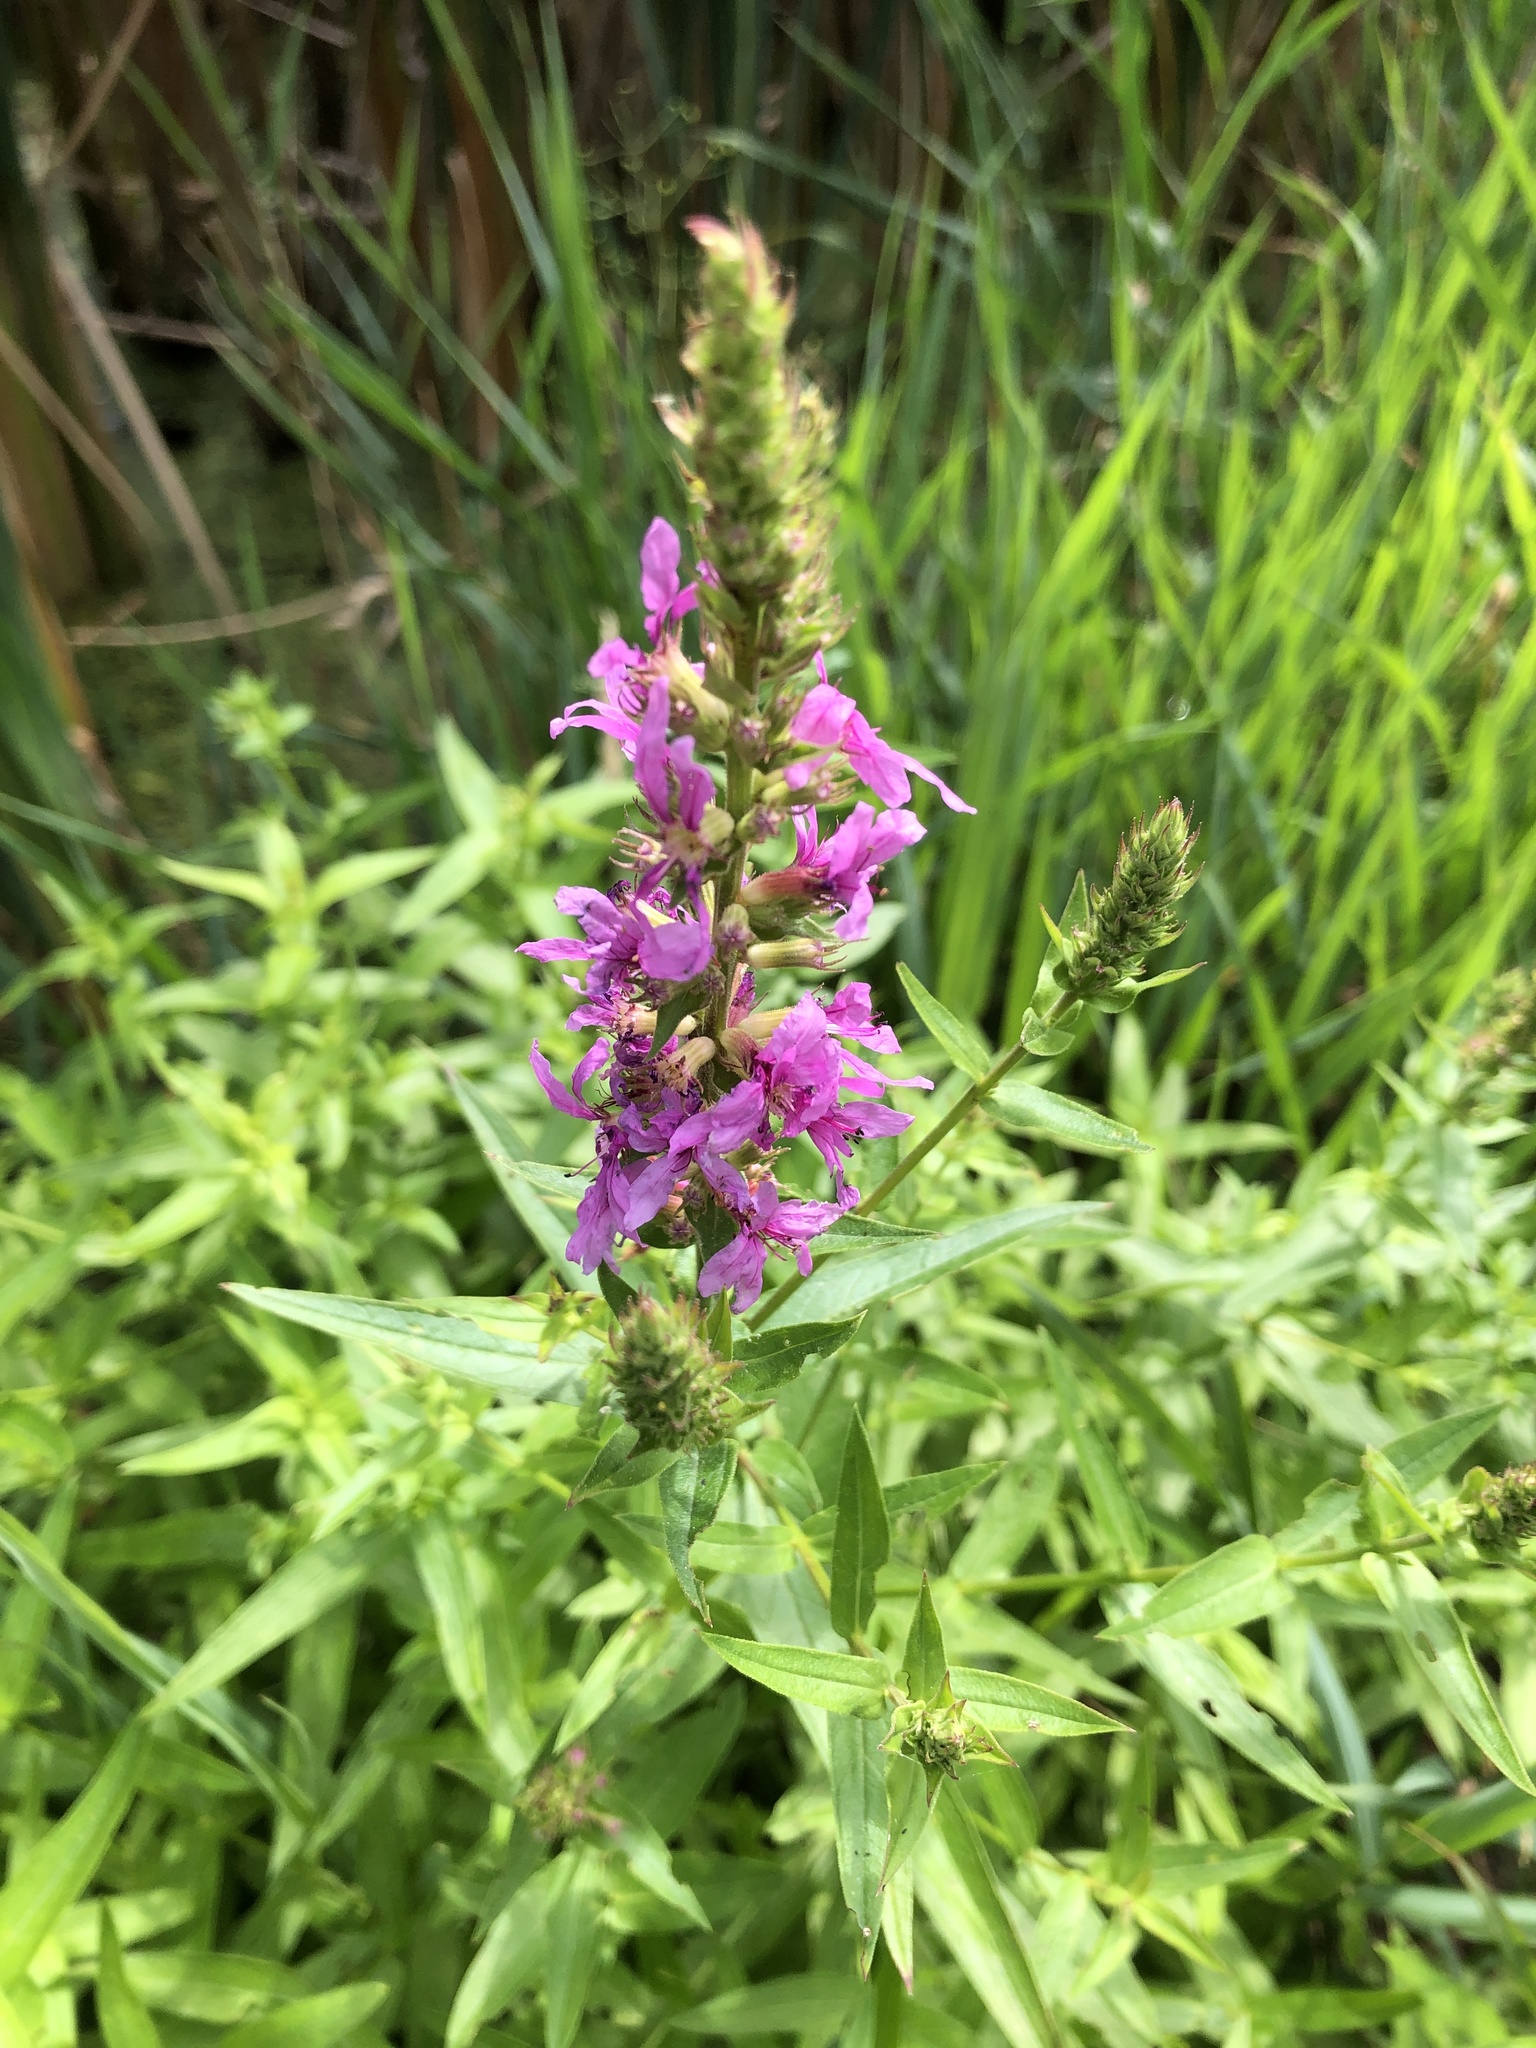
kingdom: Plantae
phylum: Tracheophyta
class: Magnoliopsida
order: Myrtales
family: Lythraceae
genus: Lythrum
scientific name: Lythrum salicaria
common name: Purple loosestrife
